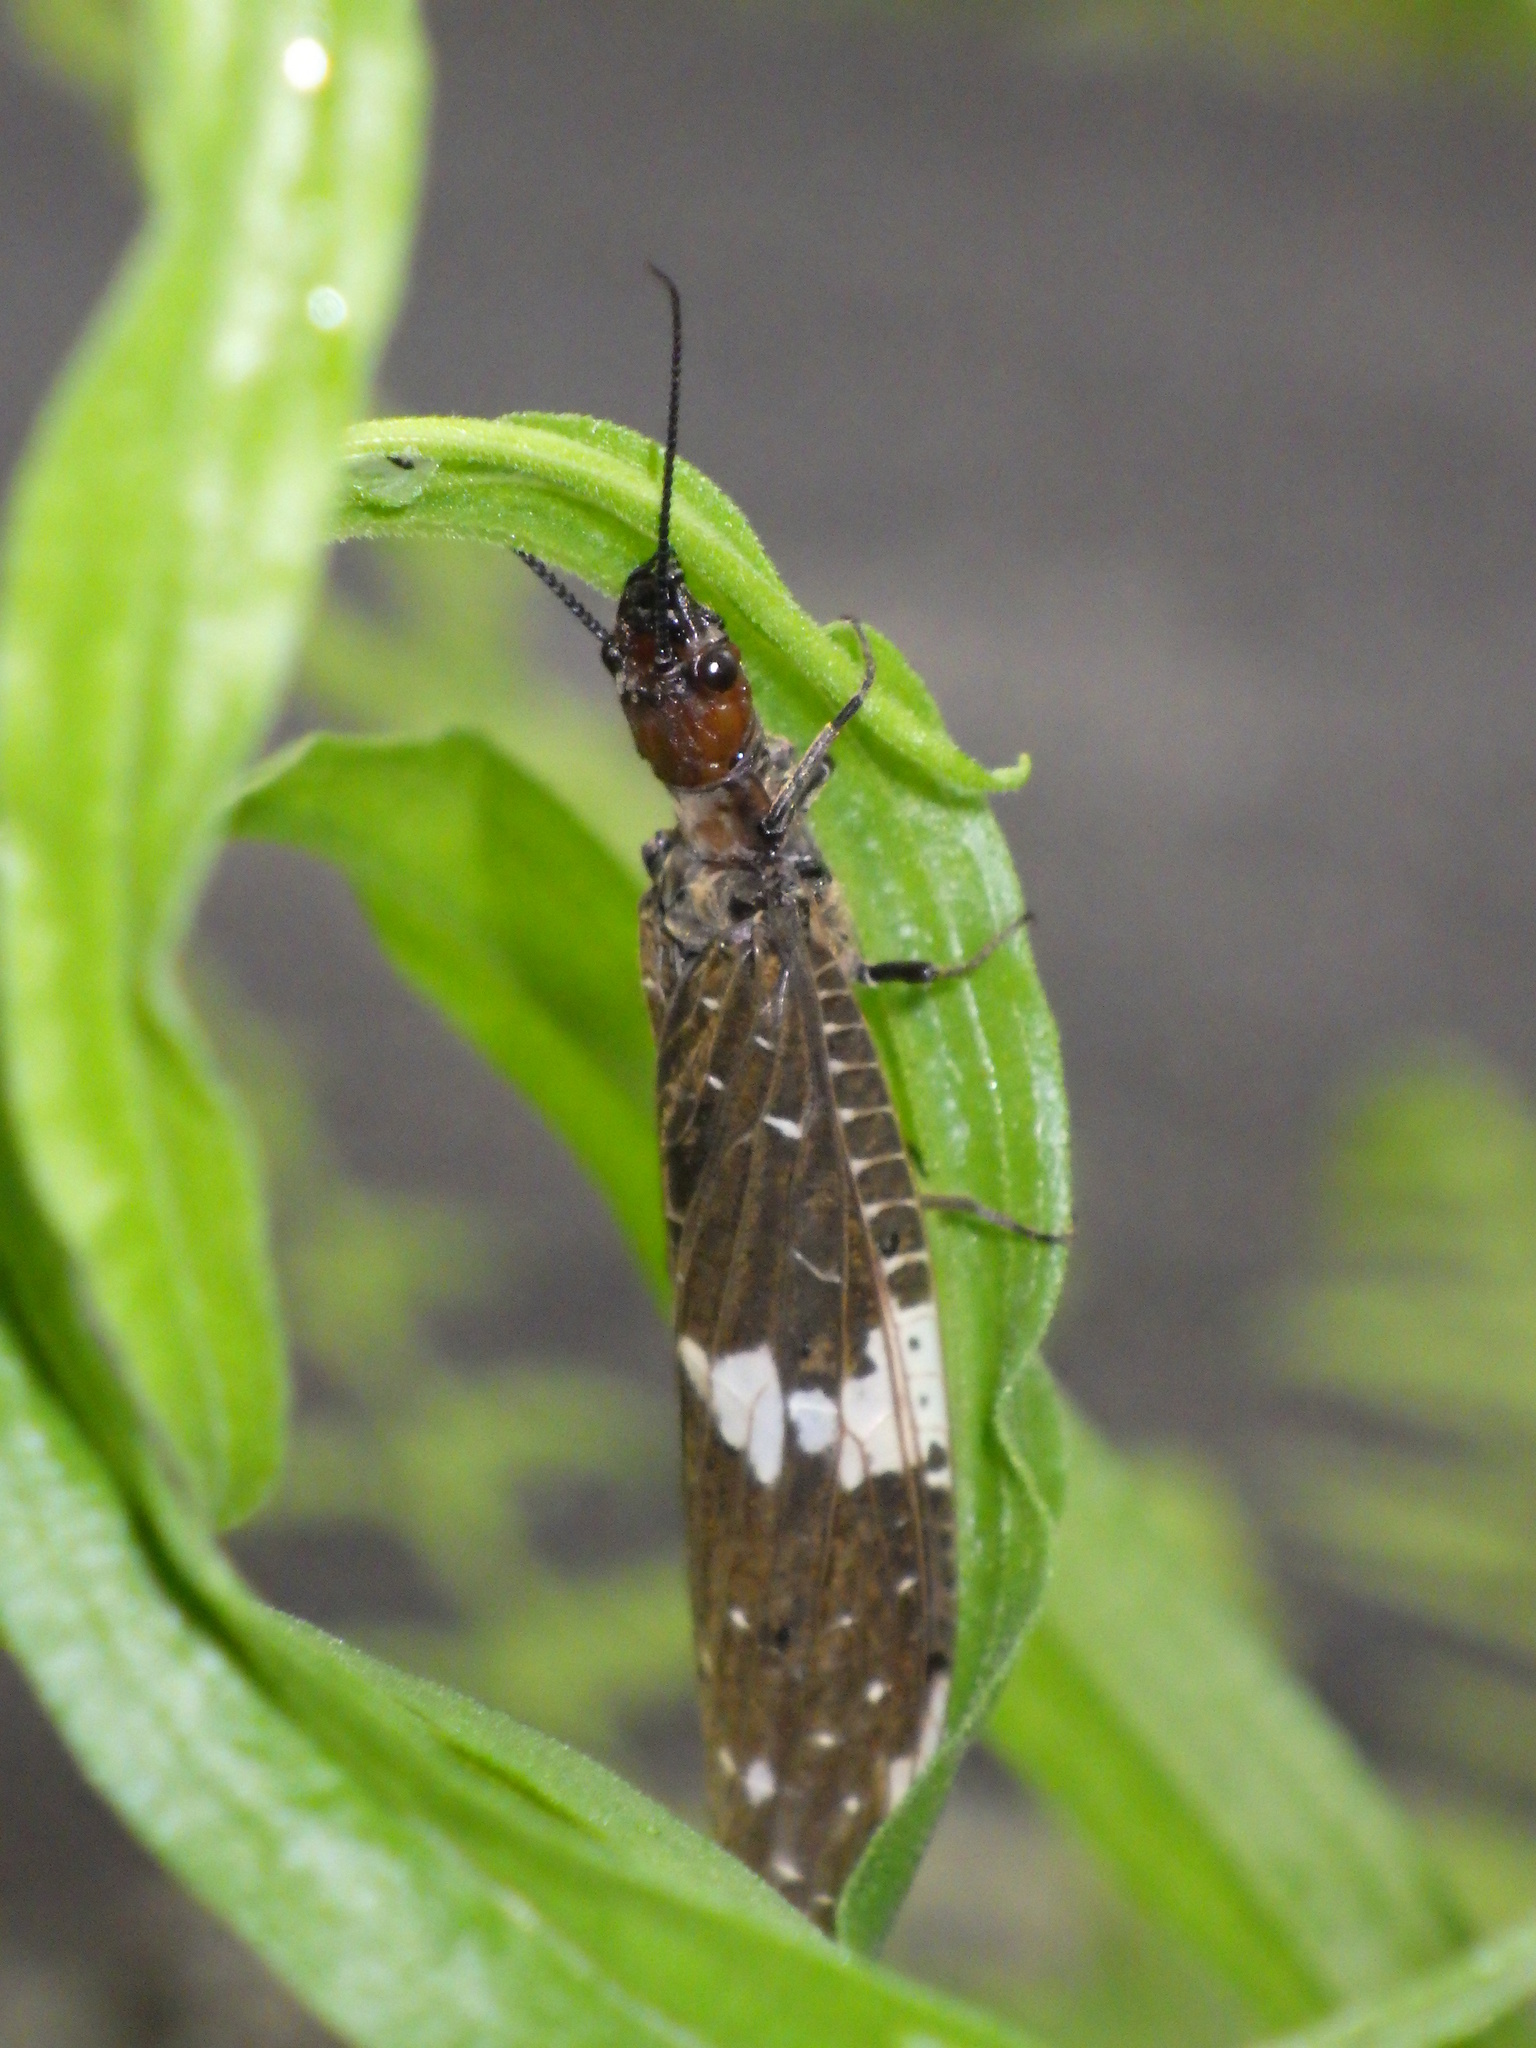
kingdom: Animalia
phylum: Arthropoda
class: Insecta
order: Megaloptera
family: Corydalidae
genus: Nigronia
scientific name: Nigronia serricornis
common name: Serrate dark fishfly
